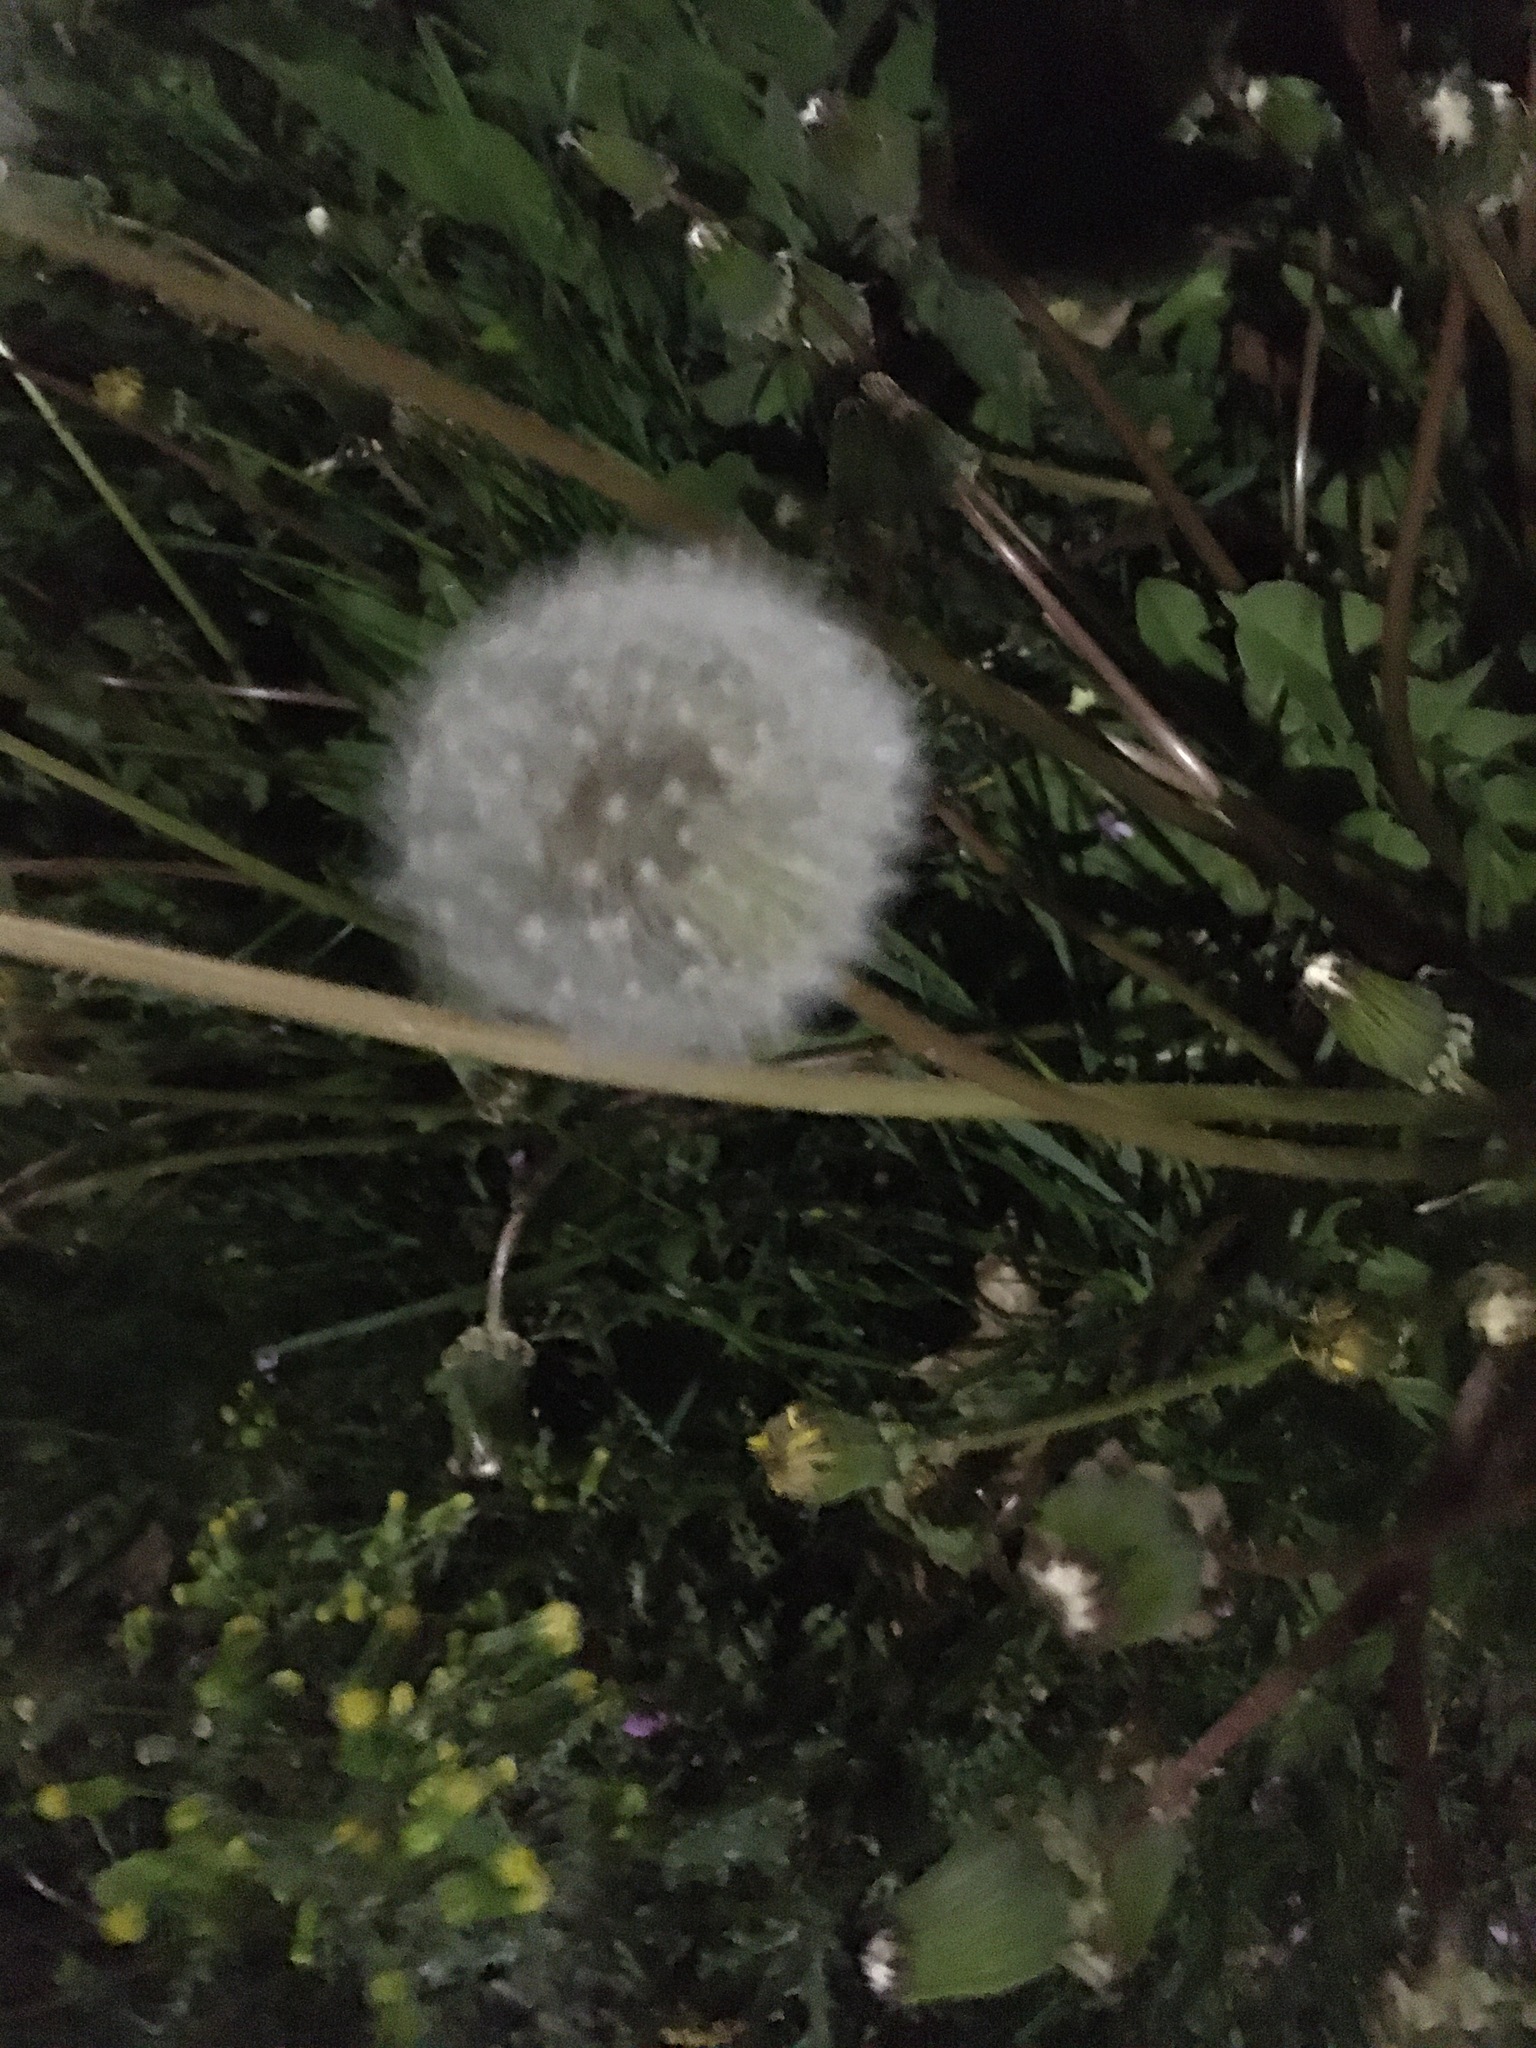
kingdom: Plantae
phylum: Tracheophyta
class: Magnoliopsida
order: Asterales
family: Asteraceae
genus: Taraxacum
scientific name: Taraxacum officinale
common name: Common dandelion
